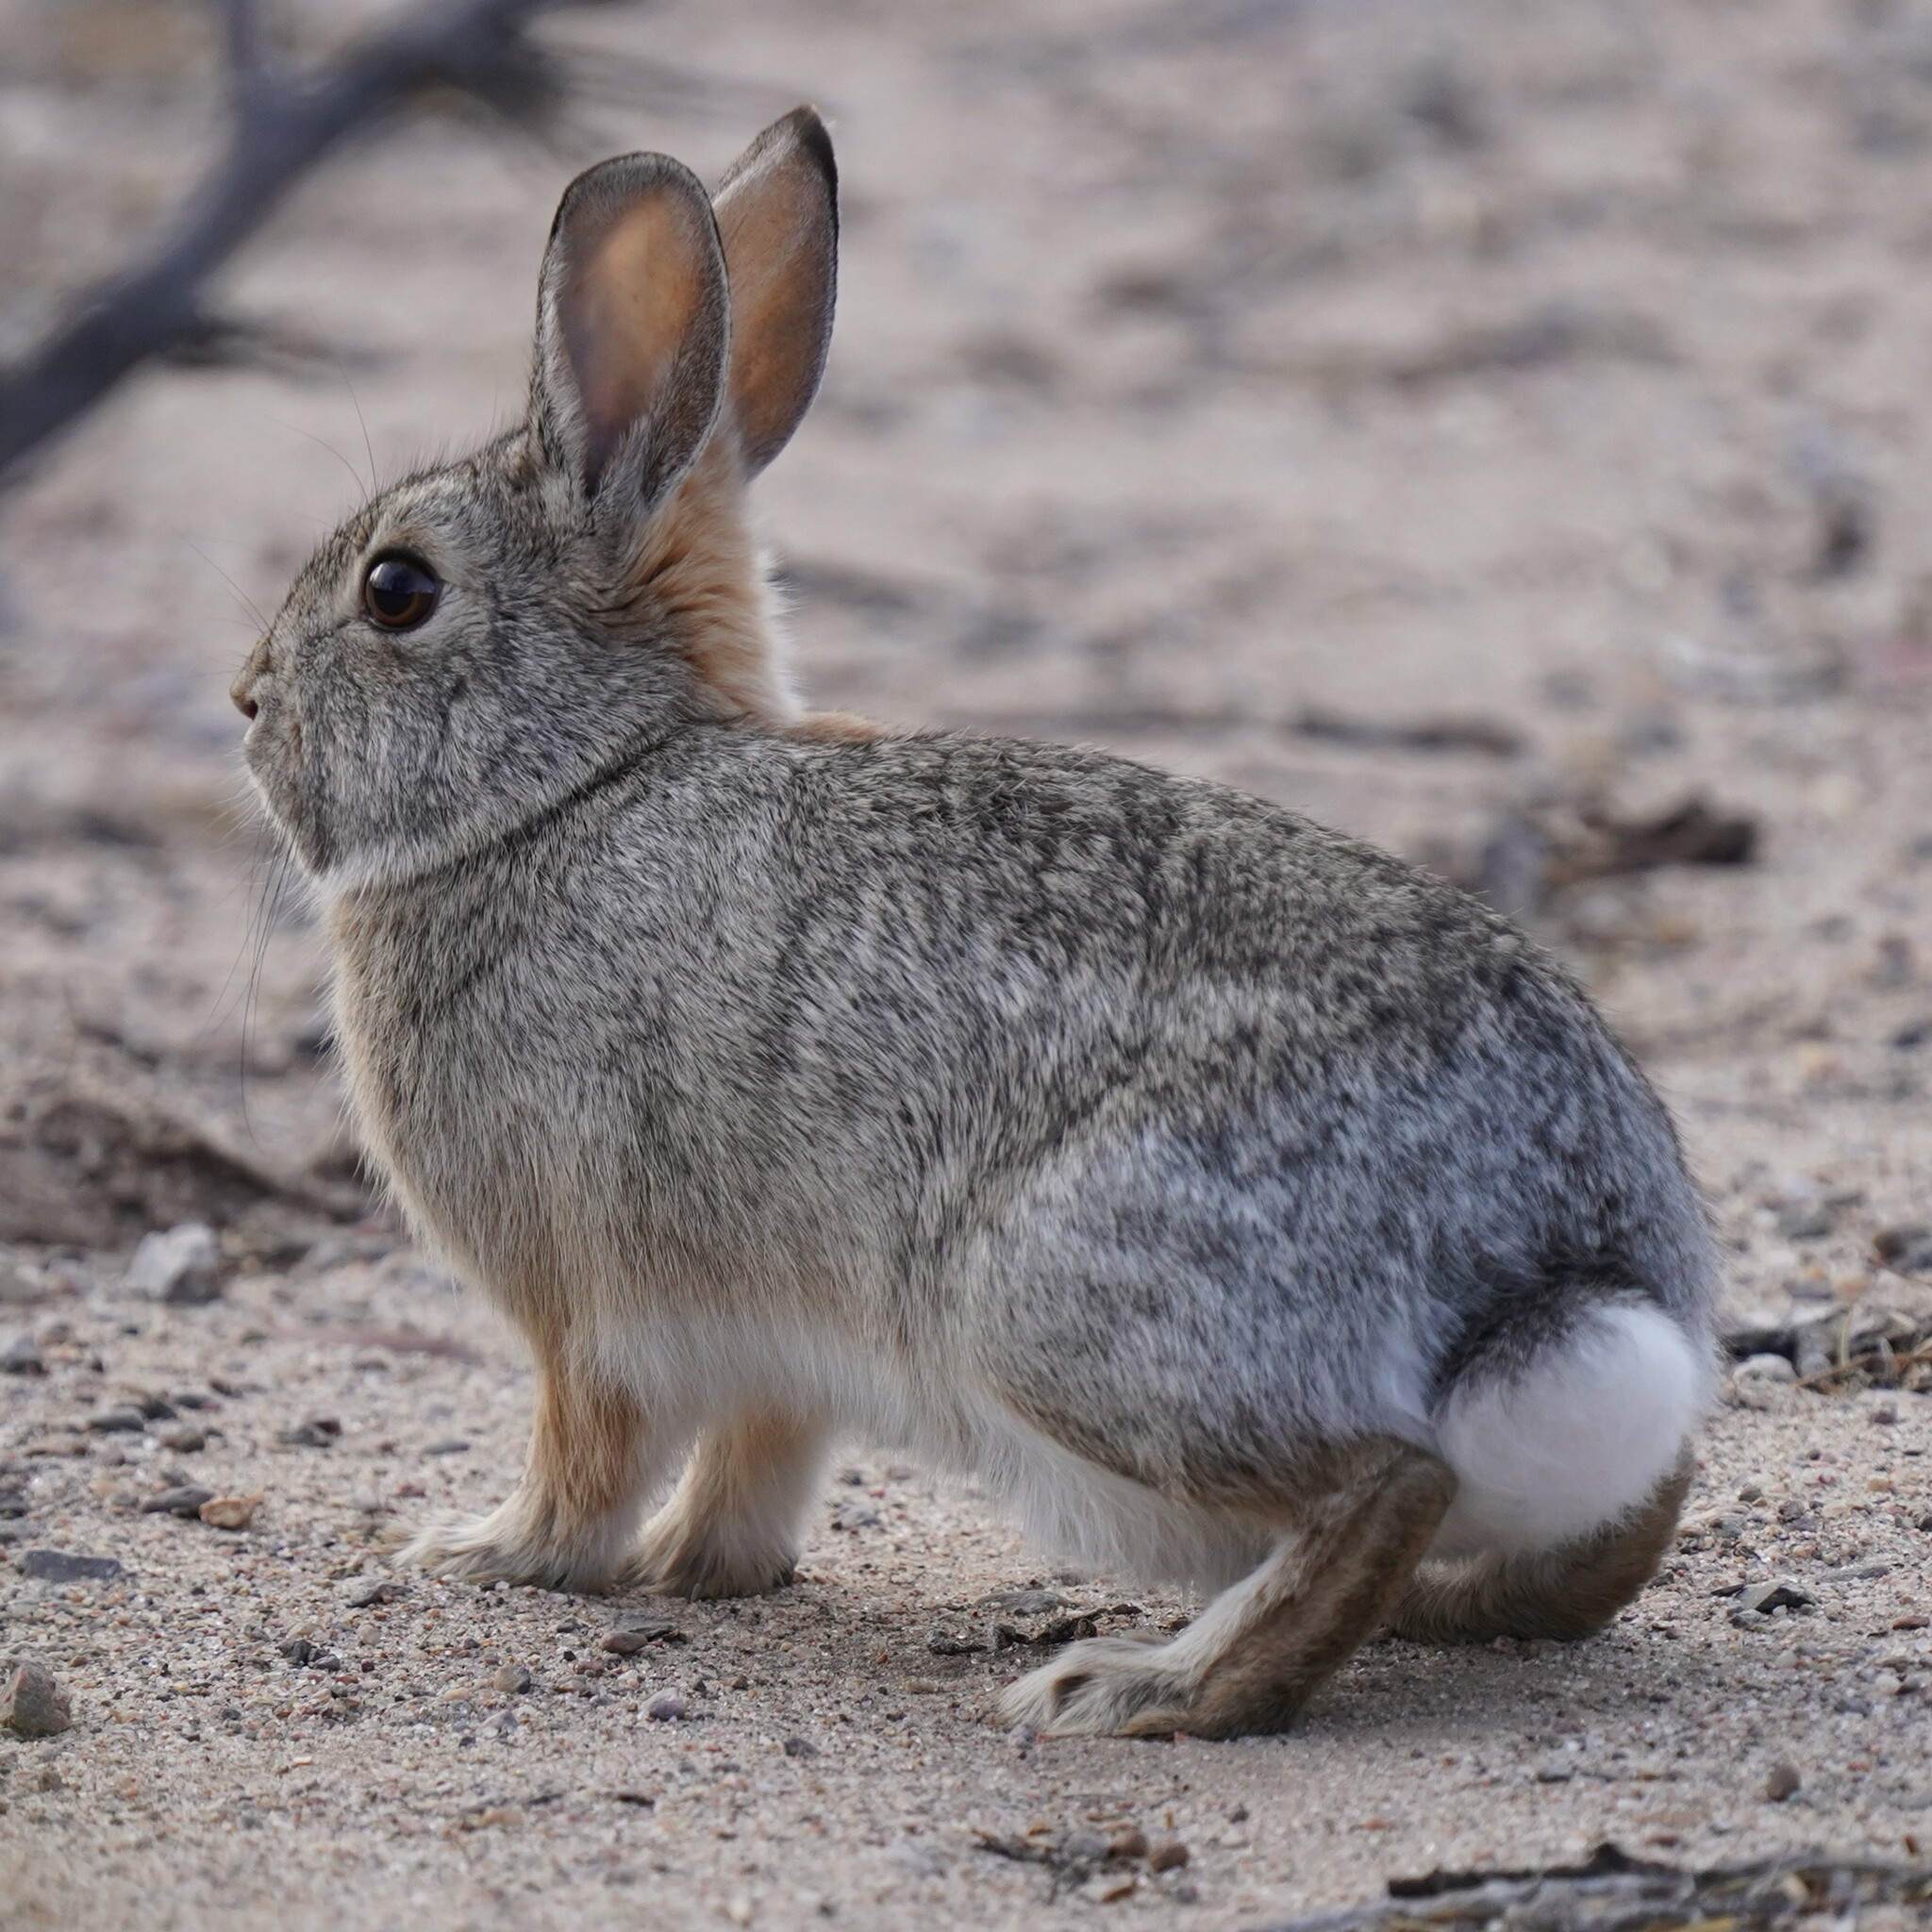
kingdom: Animalia
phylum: Chordata
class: Mammalia
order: Lagomorpha
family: Leporidae
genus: Sylvilagus
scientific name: Sylvilagus audubonii
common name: Desert cottontail
